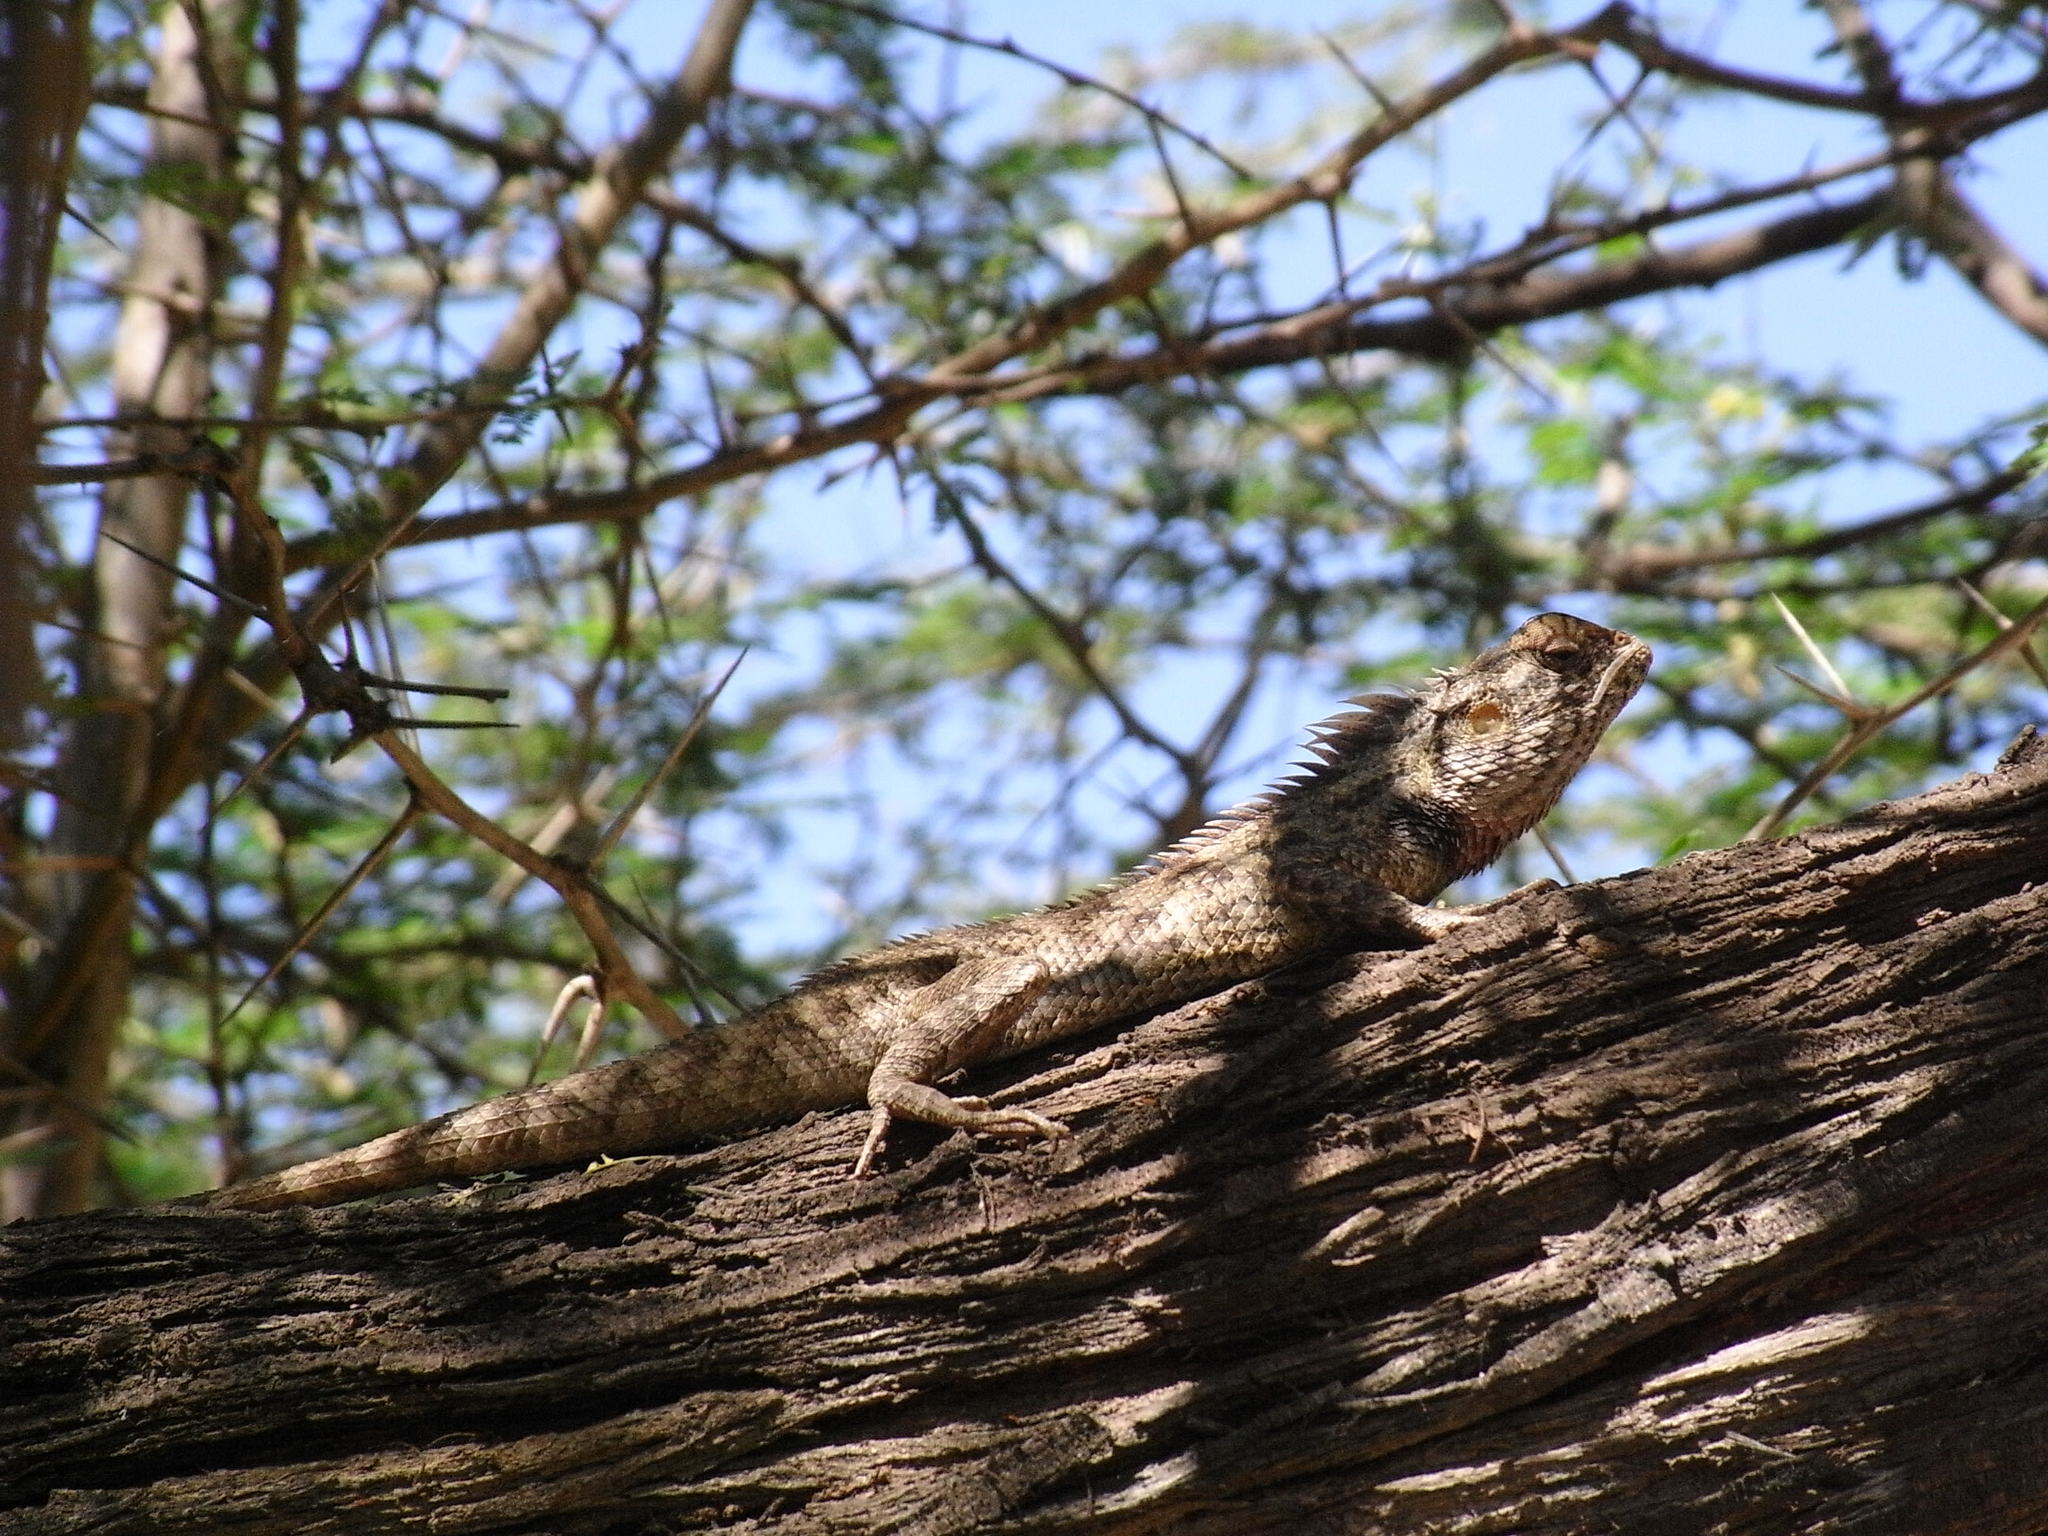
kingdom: Animalia
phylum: Chordata
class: Squamata
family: Agamidae
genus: Calotes
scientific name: Calotes versicolor
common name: Oriental garden lizard
